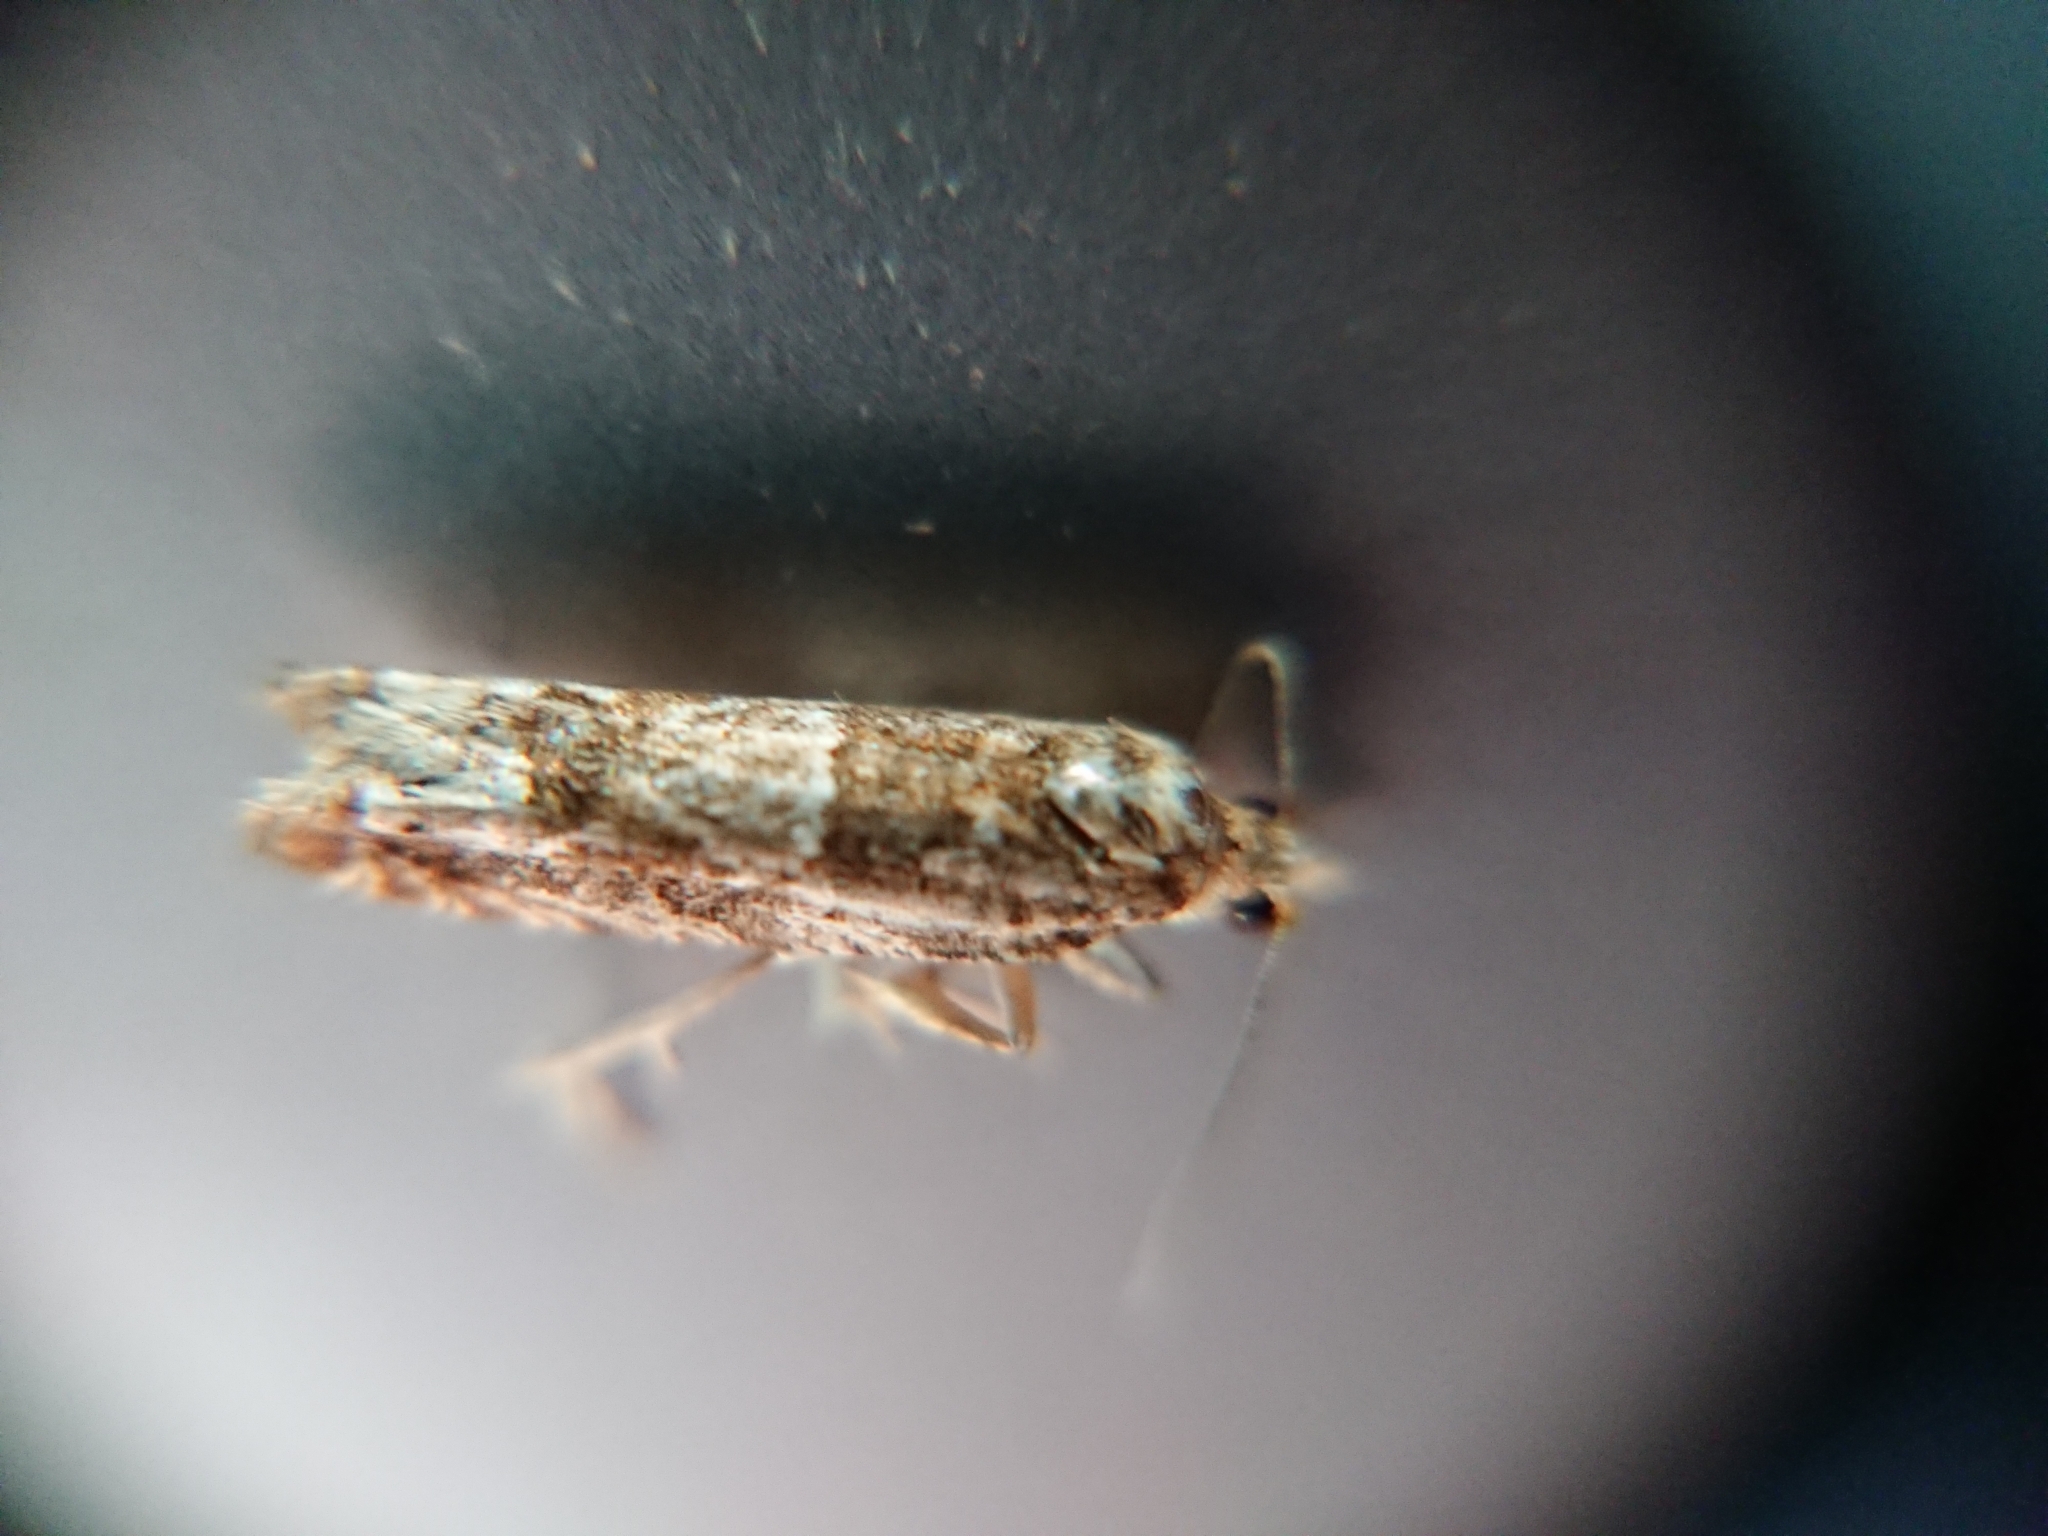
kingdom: Animalia
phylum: Arthropoda
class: Insecta
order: Lepidoptera
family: Tortricidae
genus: Crocidosema
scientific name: Crocidosema plebejana
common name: Southern bell
